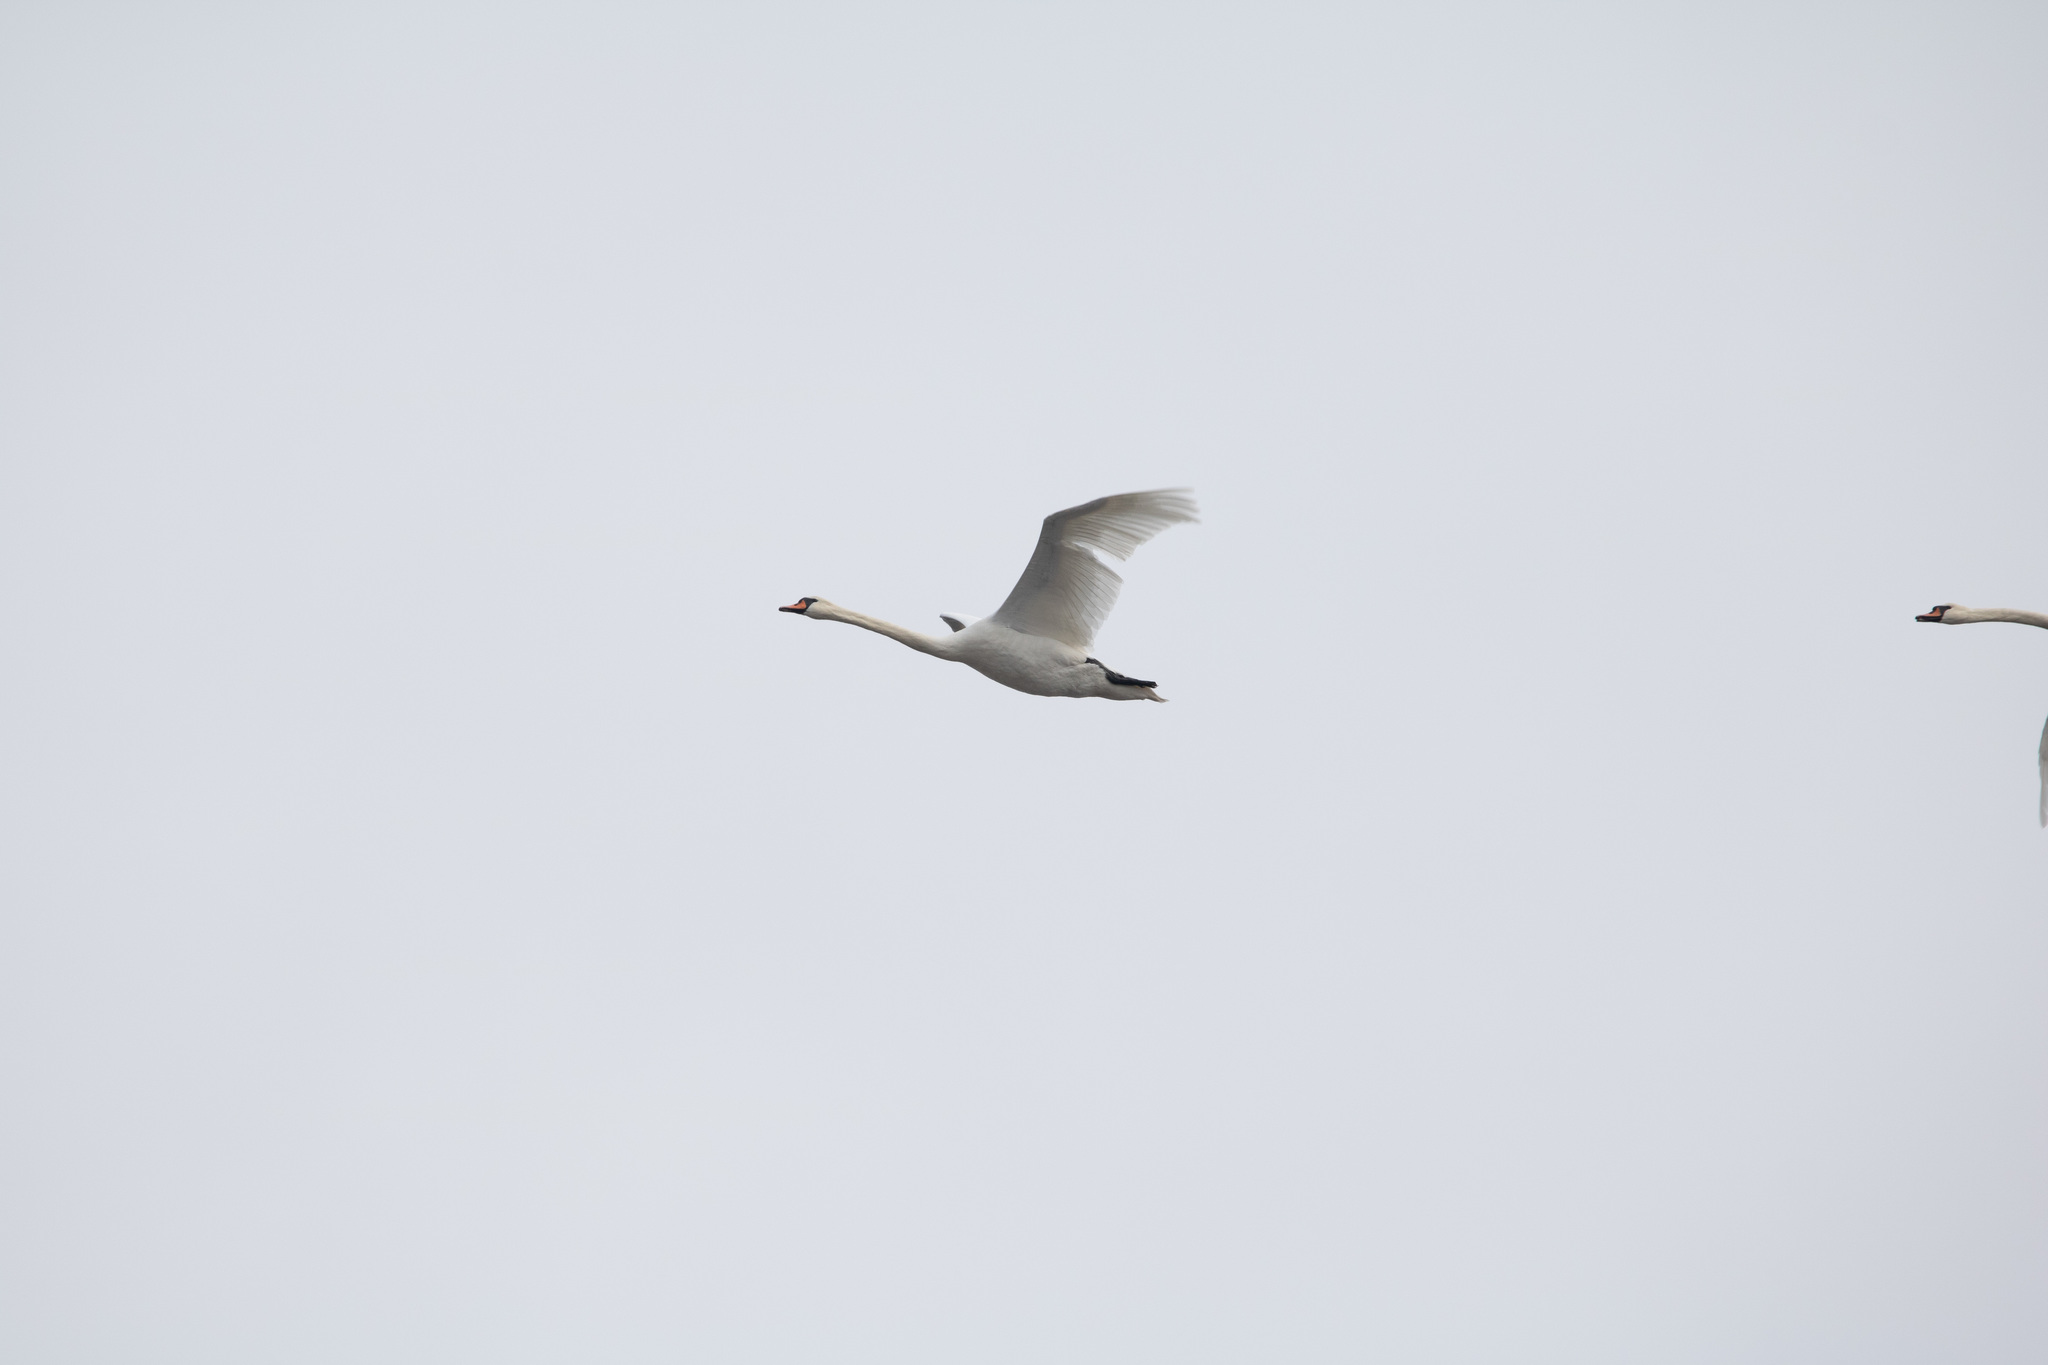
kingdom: Animalia
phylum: Chordata
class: Aves
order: Anseriformes
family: Anatidae
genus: Cygnus
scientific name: Cygnus olor
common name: Mute swan
